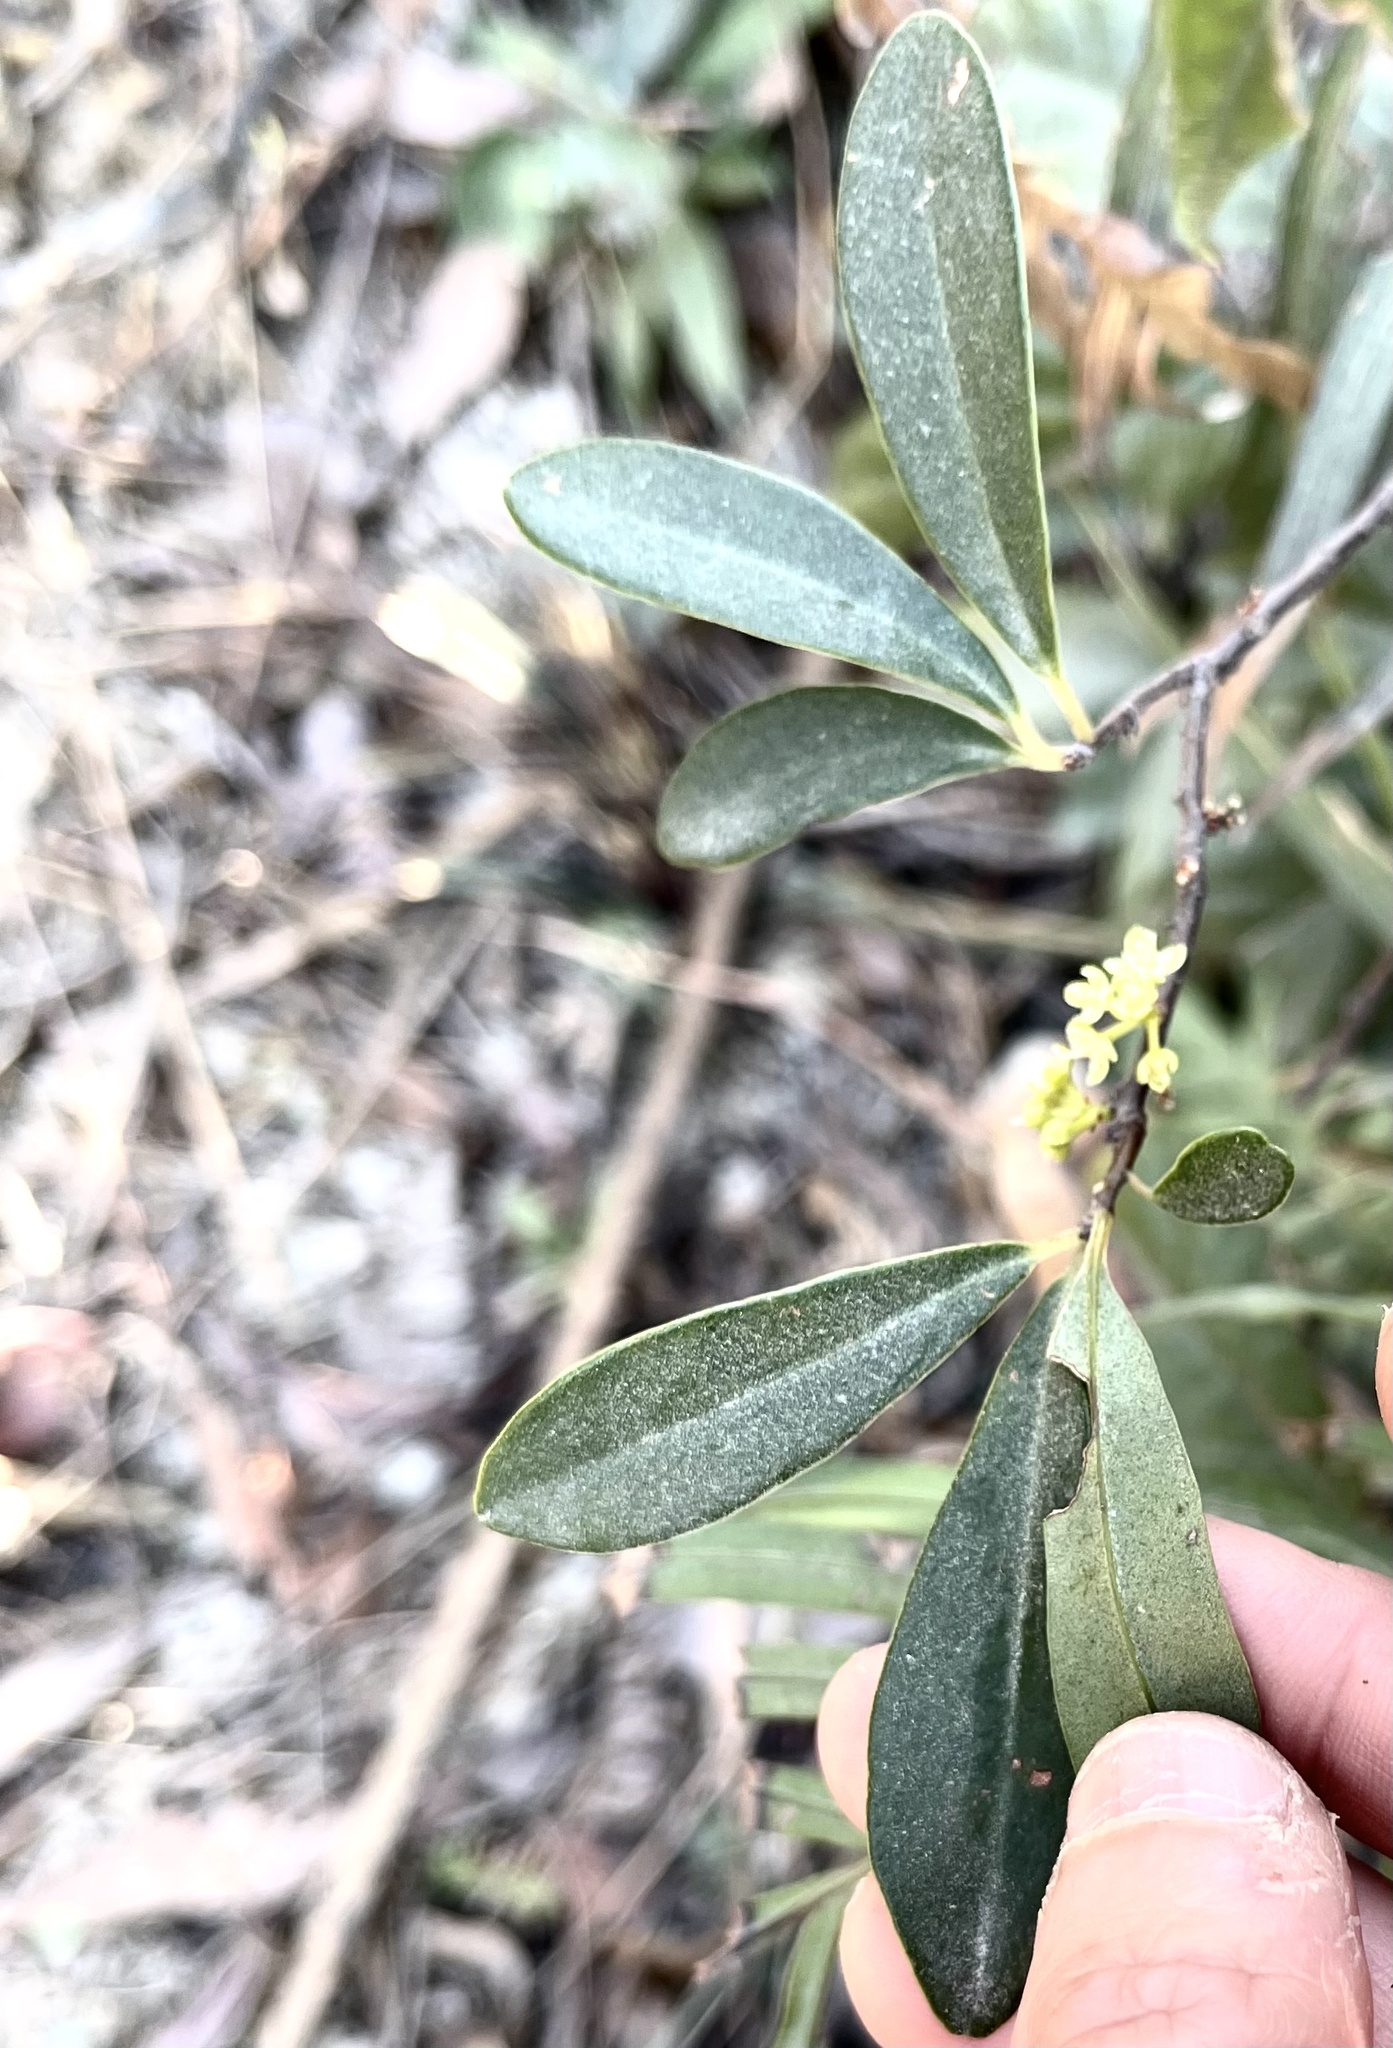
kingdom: Plantae
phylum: Tracheophyta
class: Magnoliopsida
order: Ericales
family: Primulaceae
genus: Embelia
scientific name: Embelia laeta
